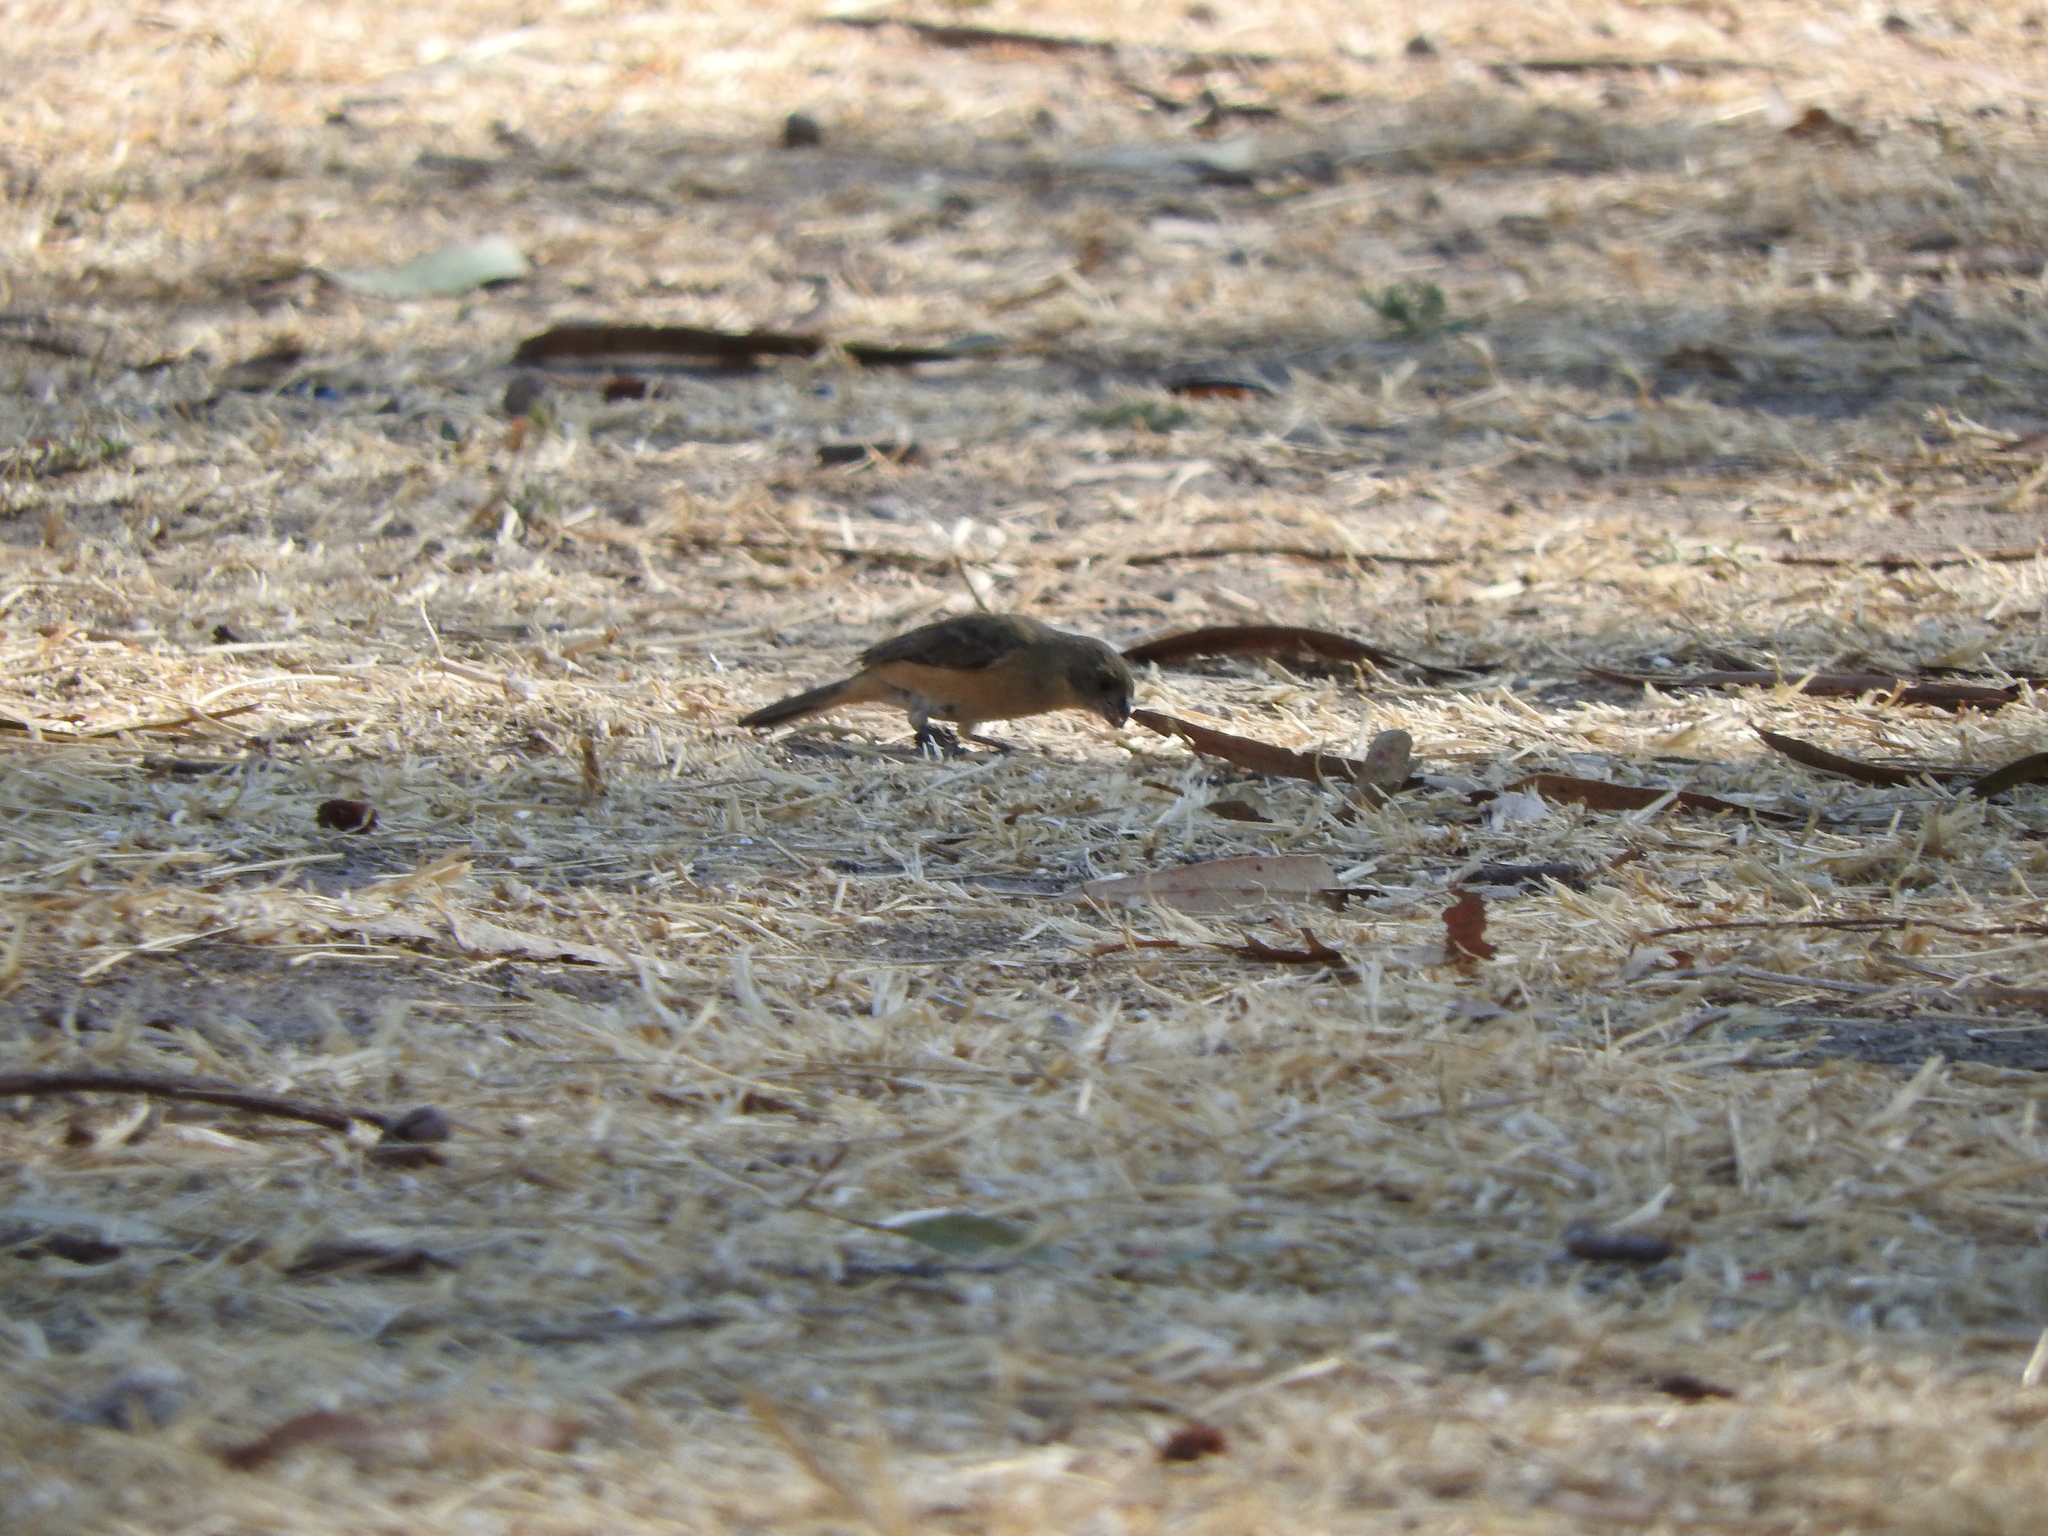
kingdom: Animalia
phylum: Chordata
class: Aves
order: Passeriformes
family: Thraupidae
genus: Sporophila
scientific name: Sporophila torqueola
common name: White-collared seedeater
